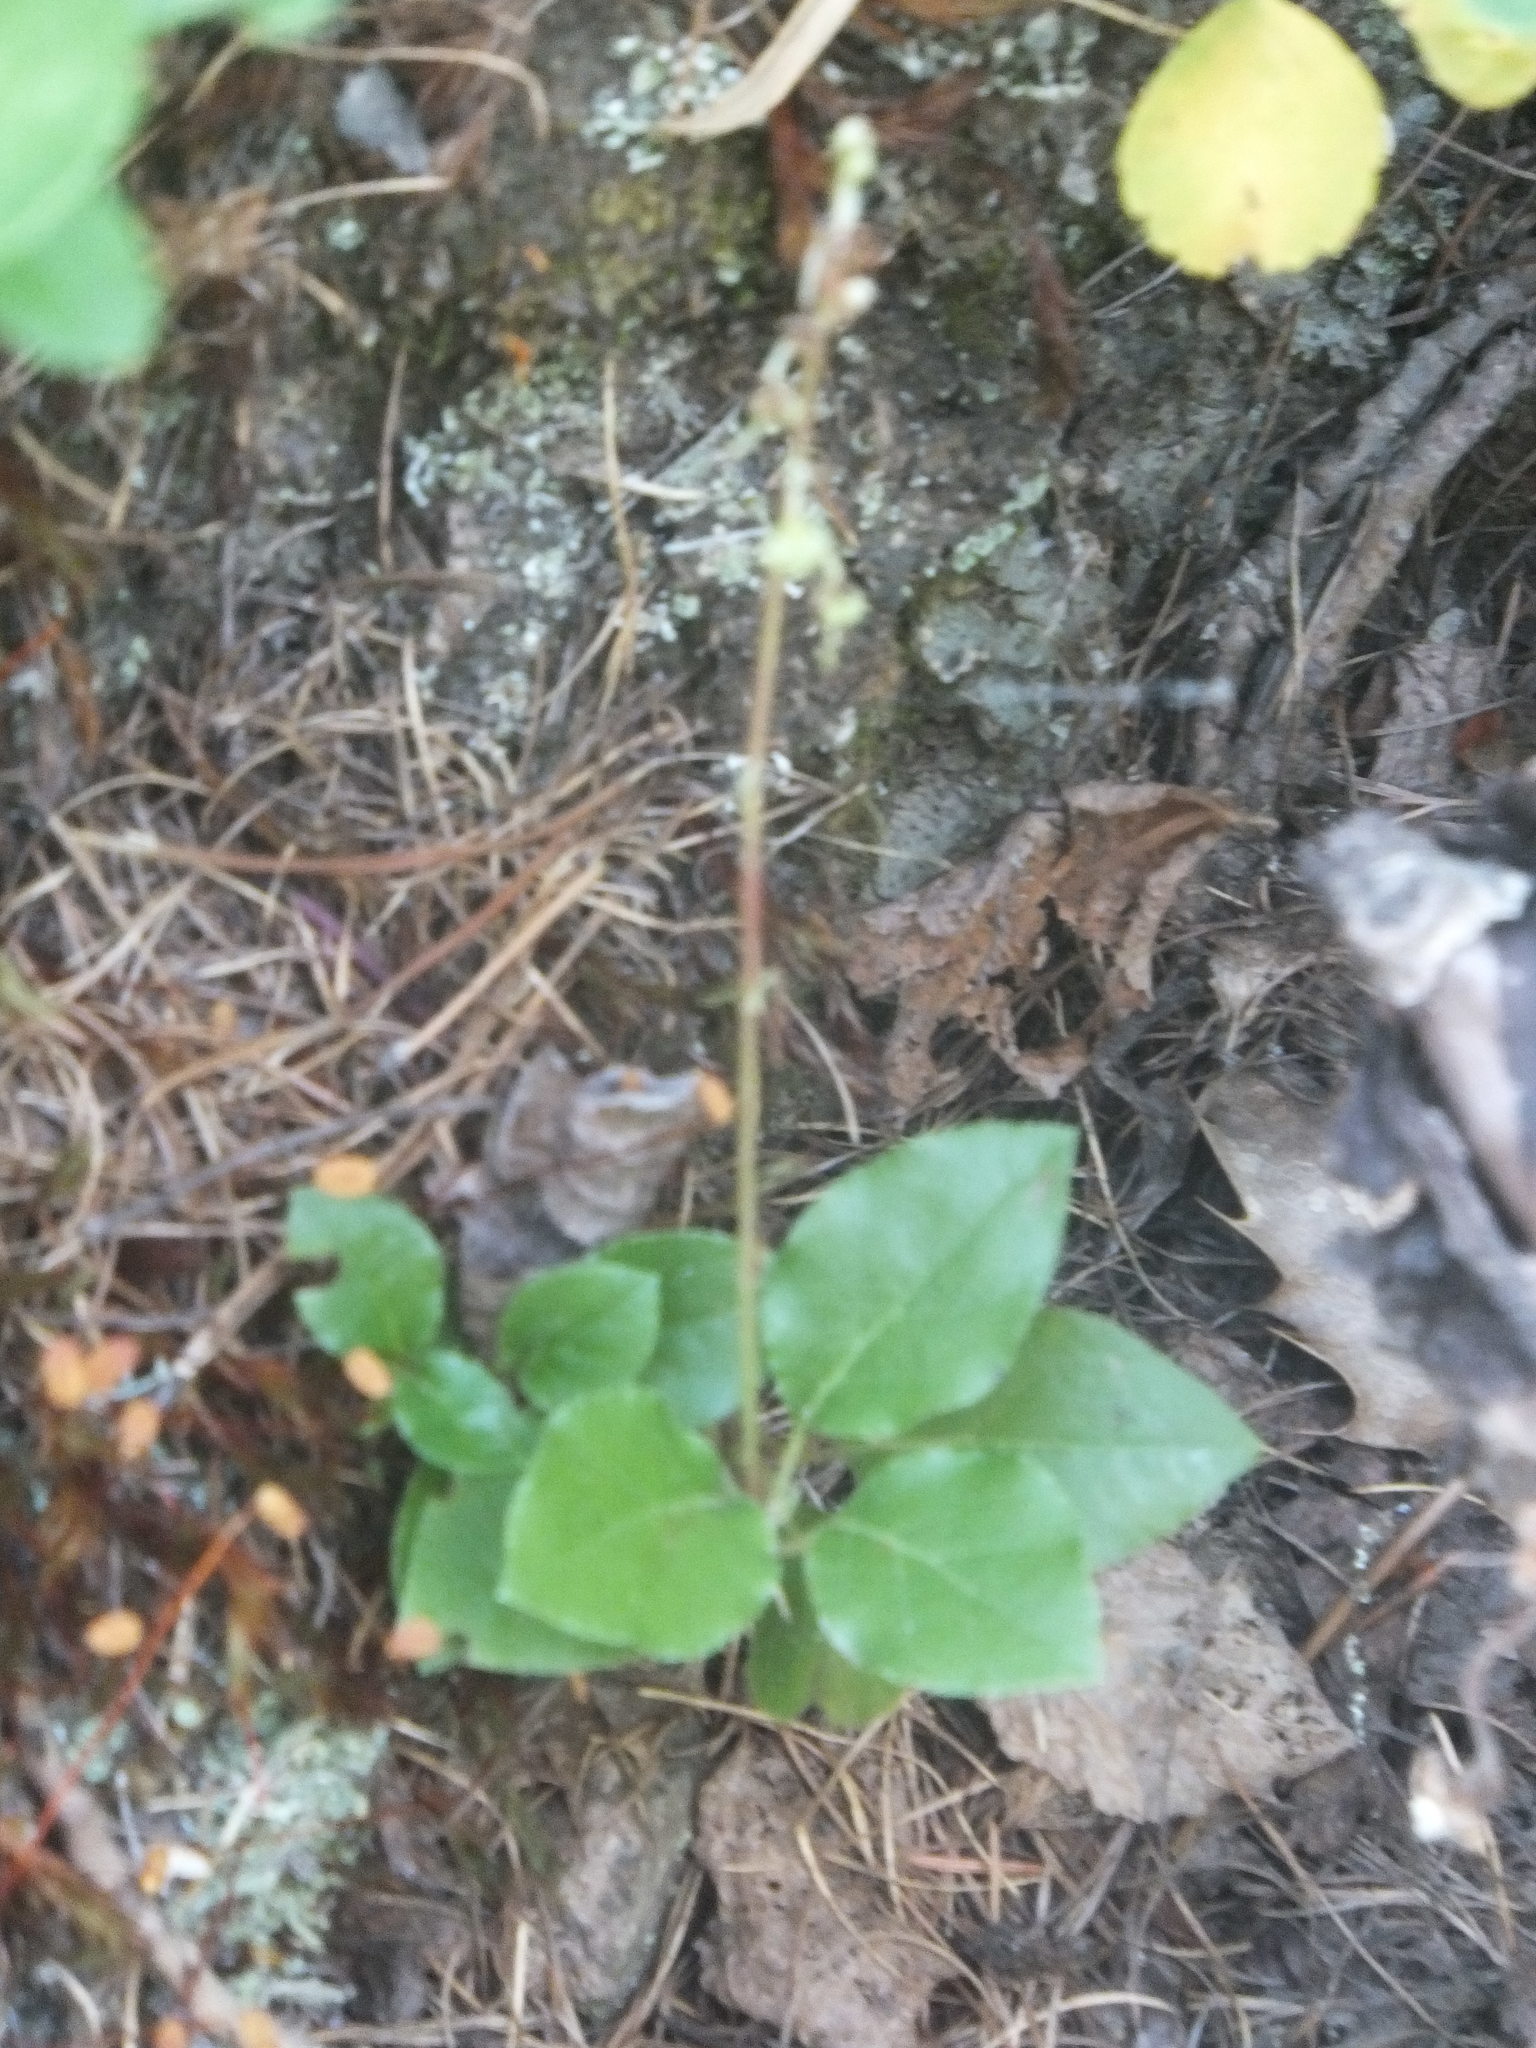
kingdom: Plantae
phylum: Tracheophyta
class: Magnoliopsida
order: Ericales
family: Ericaceae
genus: Orthilia
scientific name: Orthilia secunda
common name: One-sided orthilia
